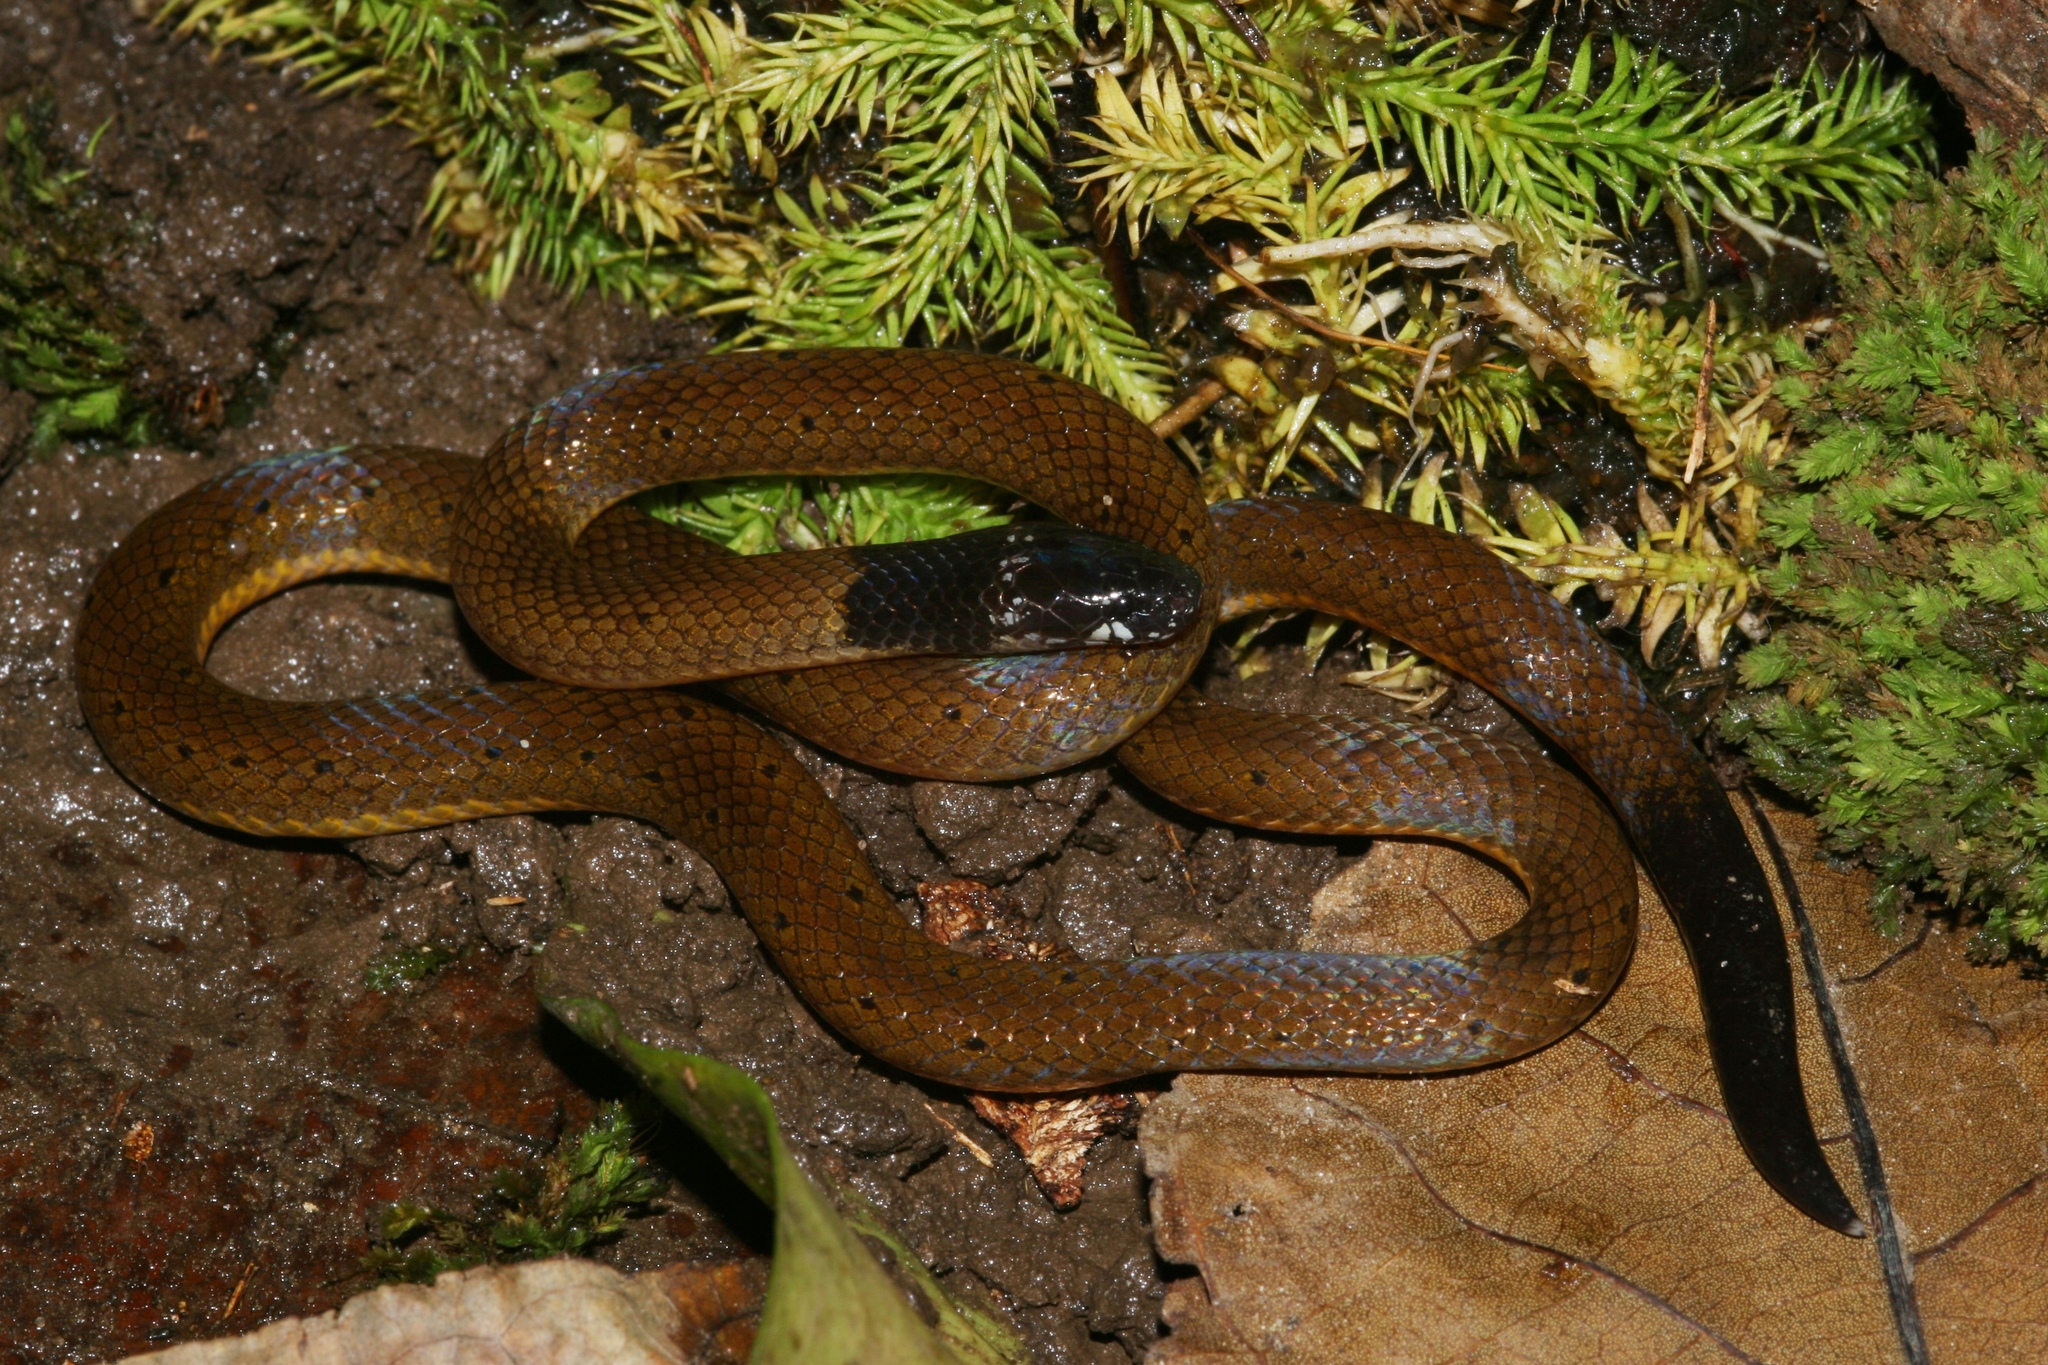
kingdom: Animalia
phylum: Chordata
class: Squamata
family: Atractaspididae
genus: Polemon
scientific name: Polemon notatus
